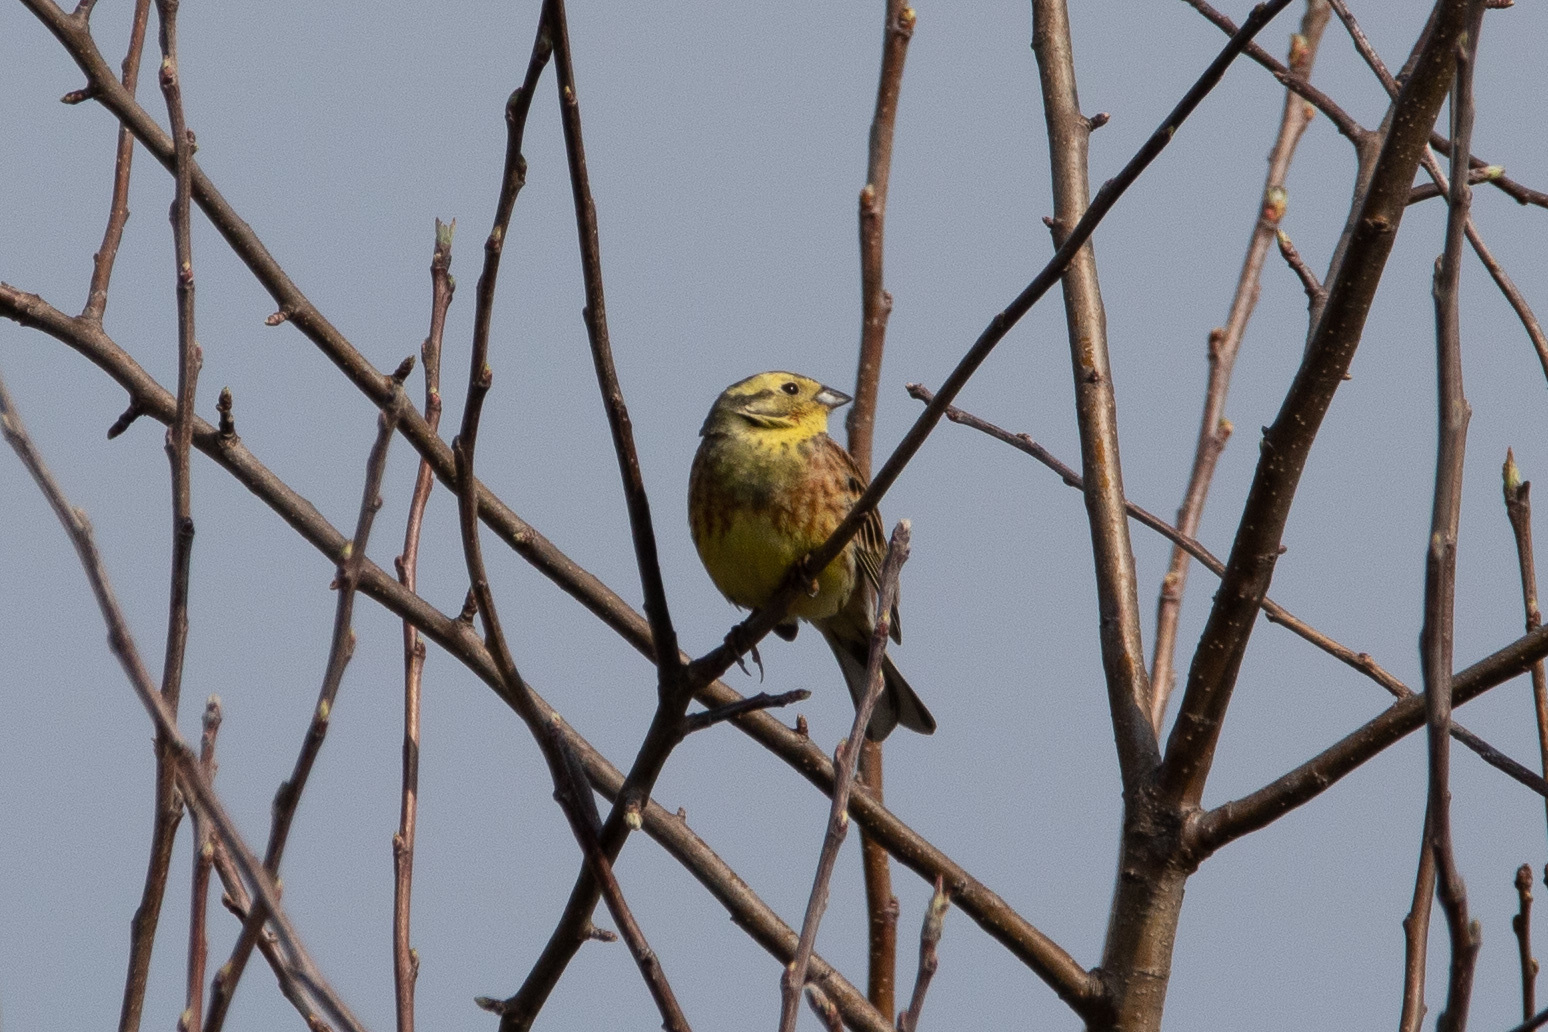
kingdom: Animalia
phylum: Chordata
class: Aves
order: Passeriformes
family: Emberizidae
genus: Emberiza
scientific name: Emberiza citrinella
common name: Yellowhammer
